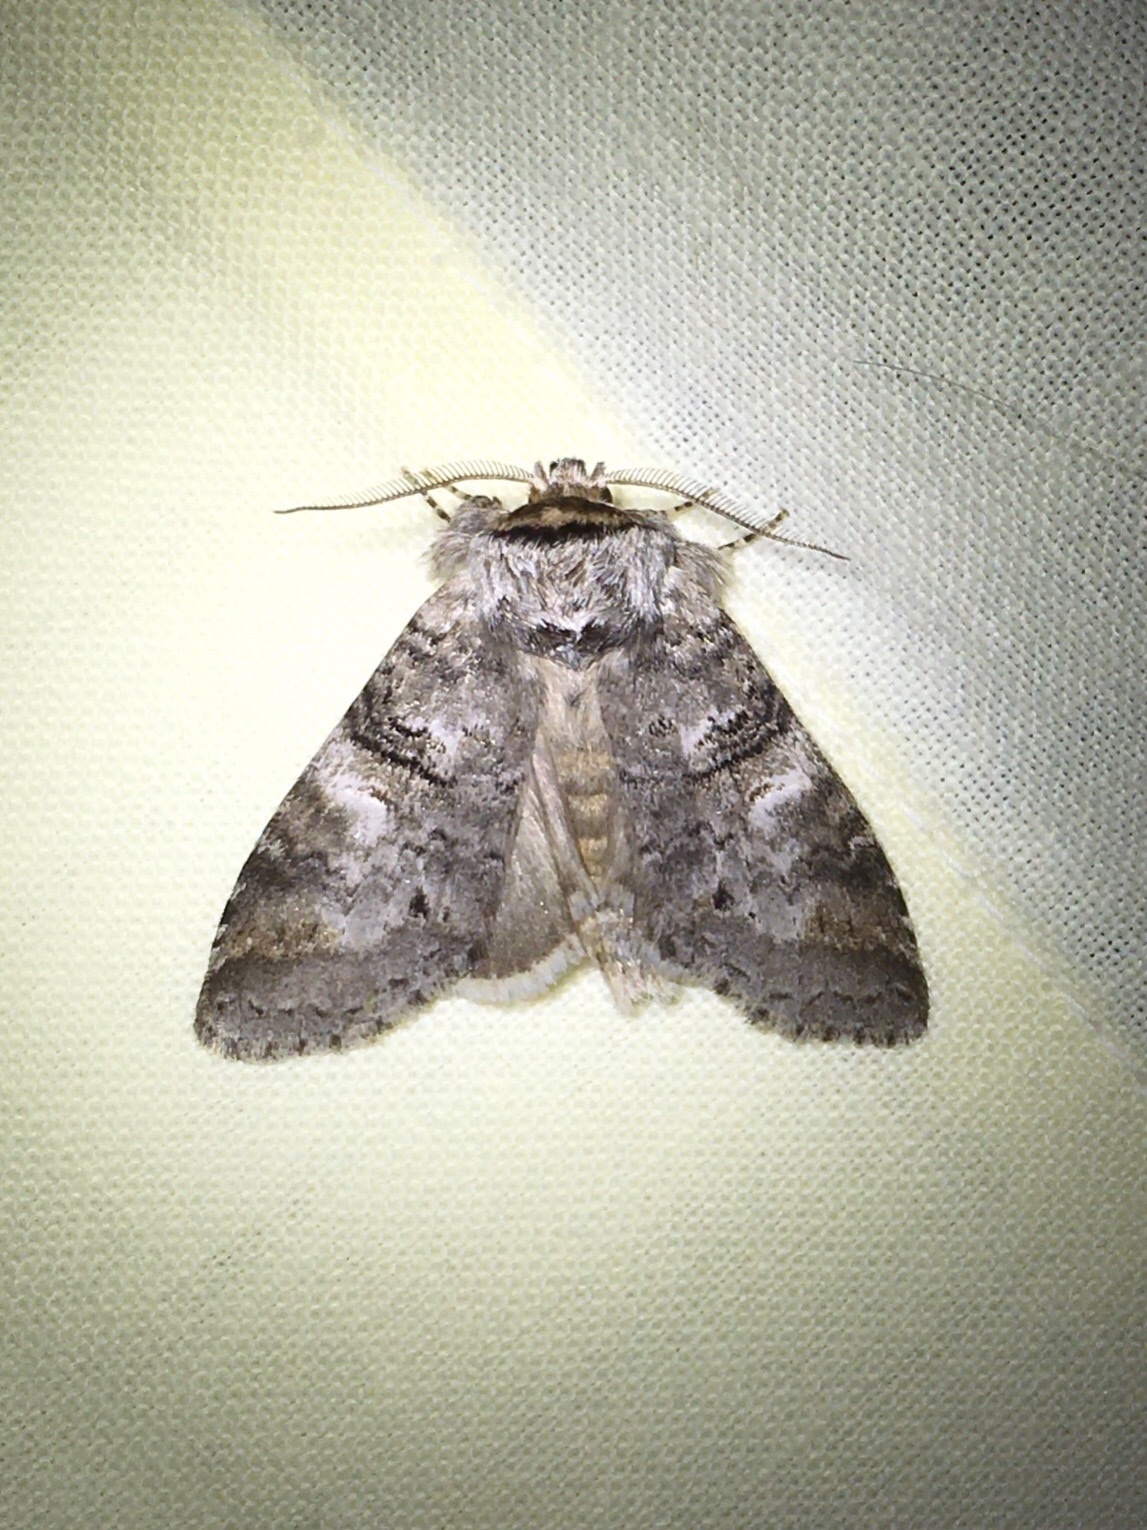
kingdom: Animalia
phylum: Arthropoda
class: Insecta
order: Lepidoptera
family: Notodontidae
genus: Ellida
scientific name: Ellida caniplaga
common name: Linden prominent
